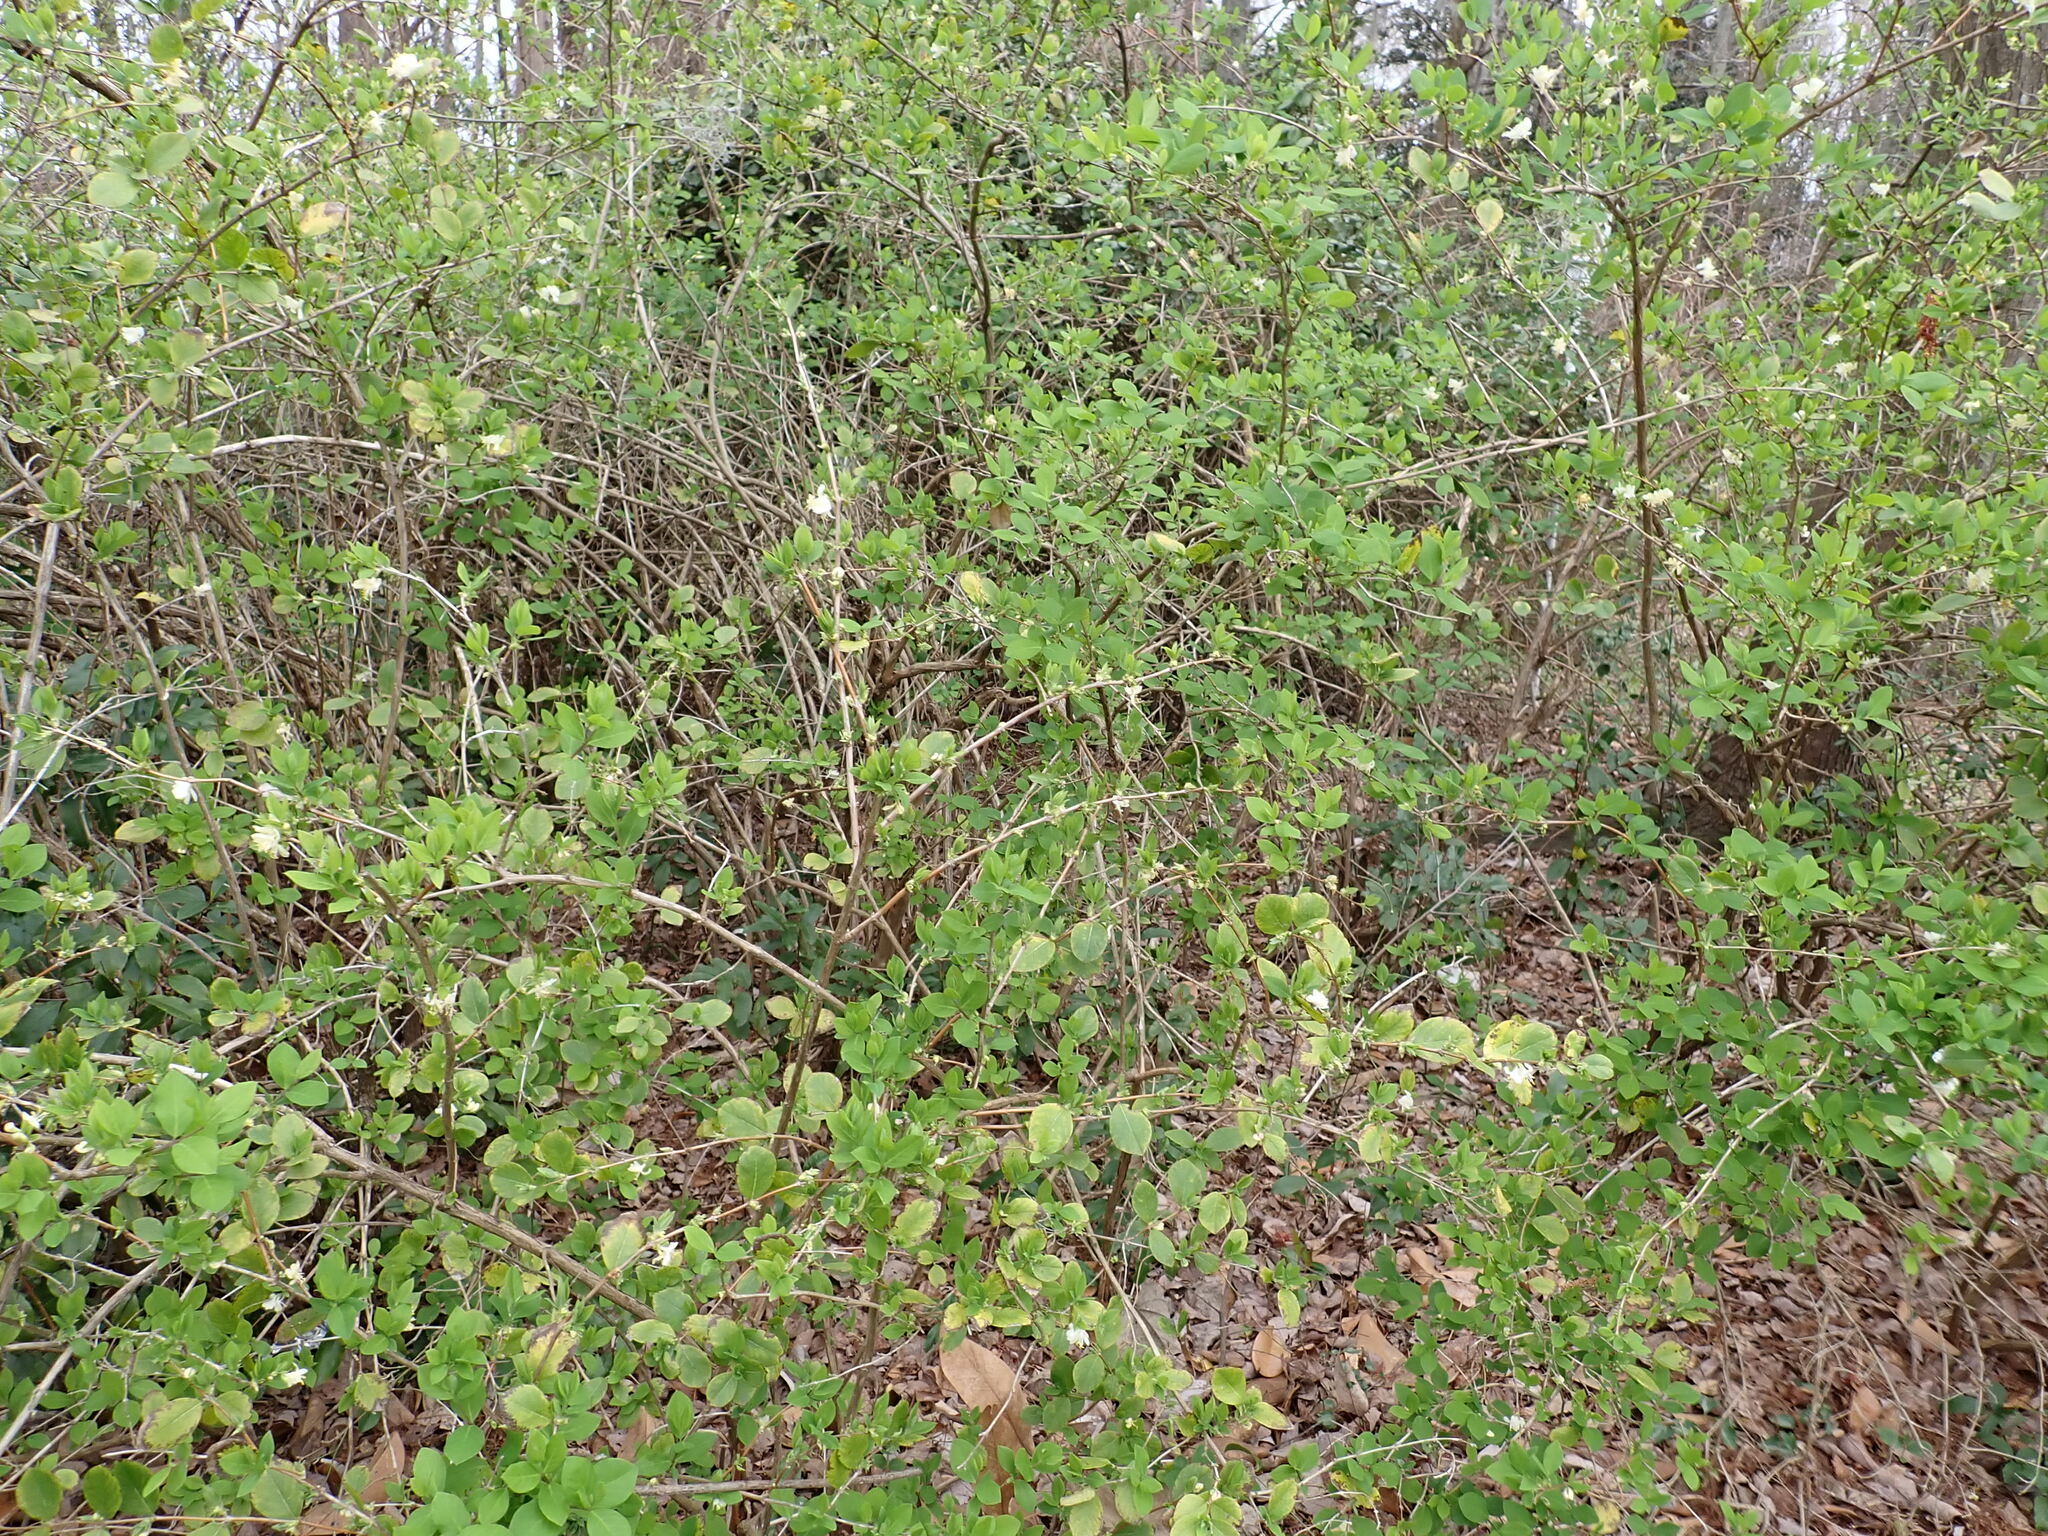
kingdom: Plantae
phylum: Tracheophyta
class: Magnoliopsida
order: Dipsacales
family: Caprifoliaceae
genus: Lonicera
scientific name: Lonicera fragrantissima
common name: Fragrant honeysuckle
